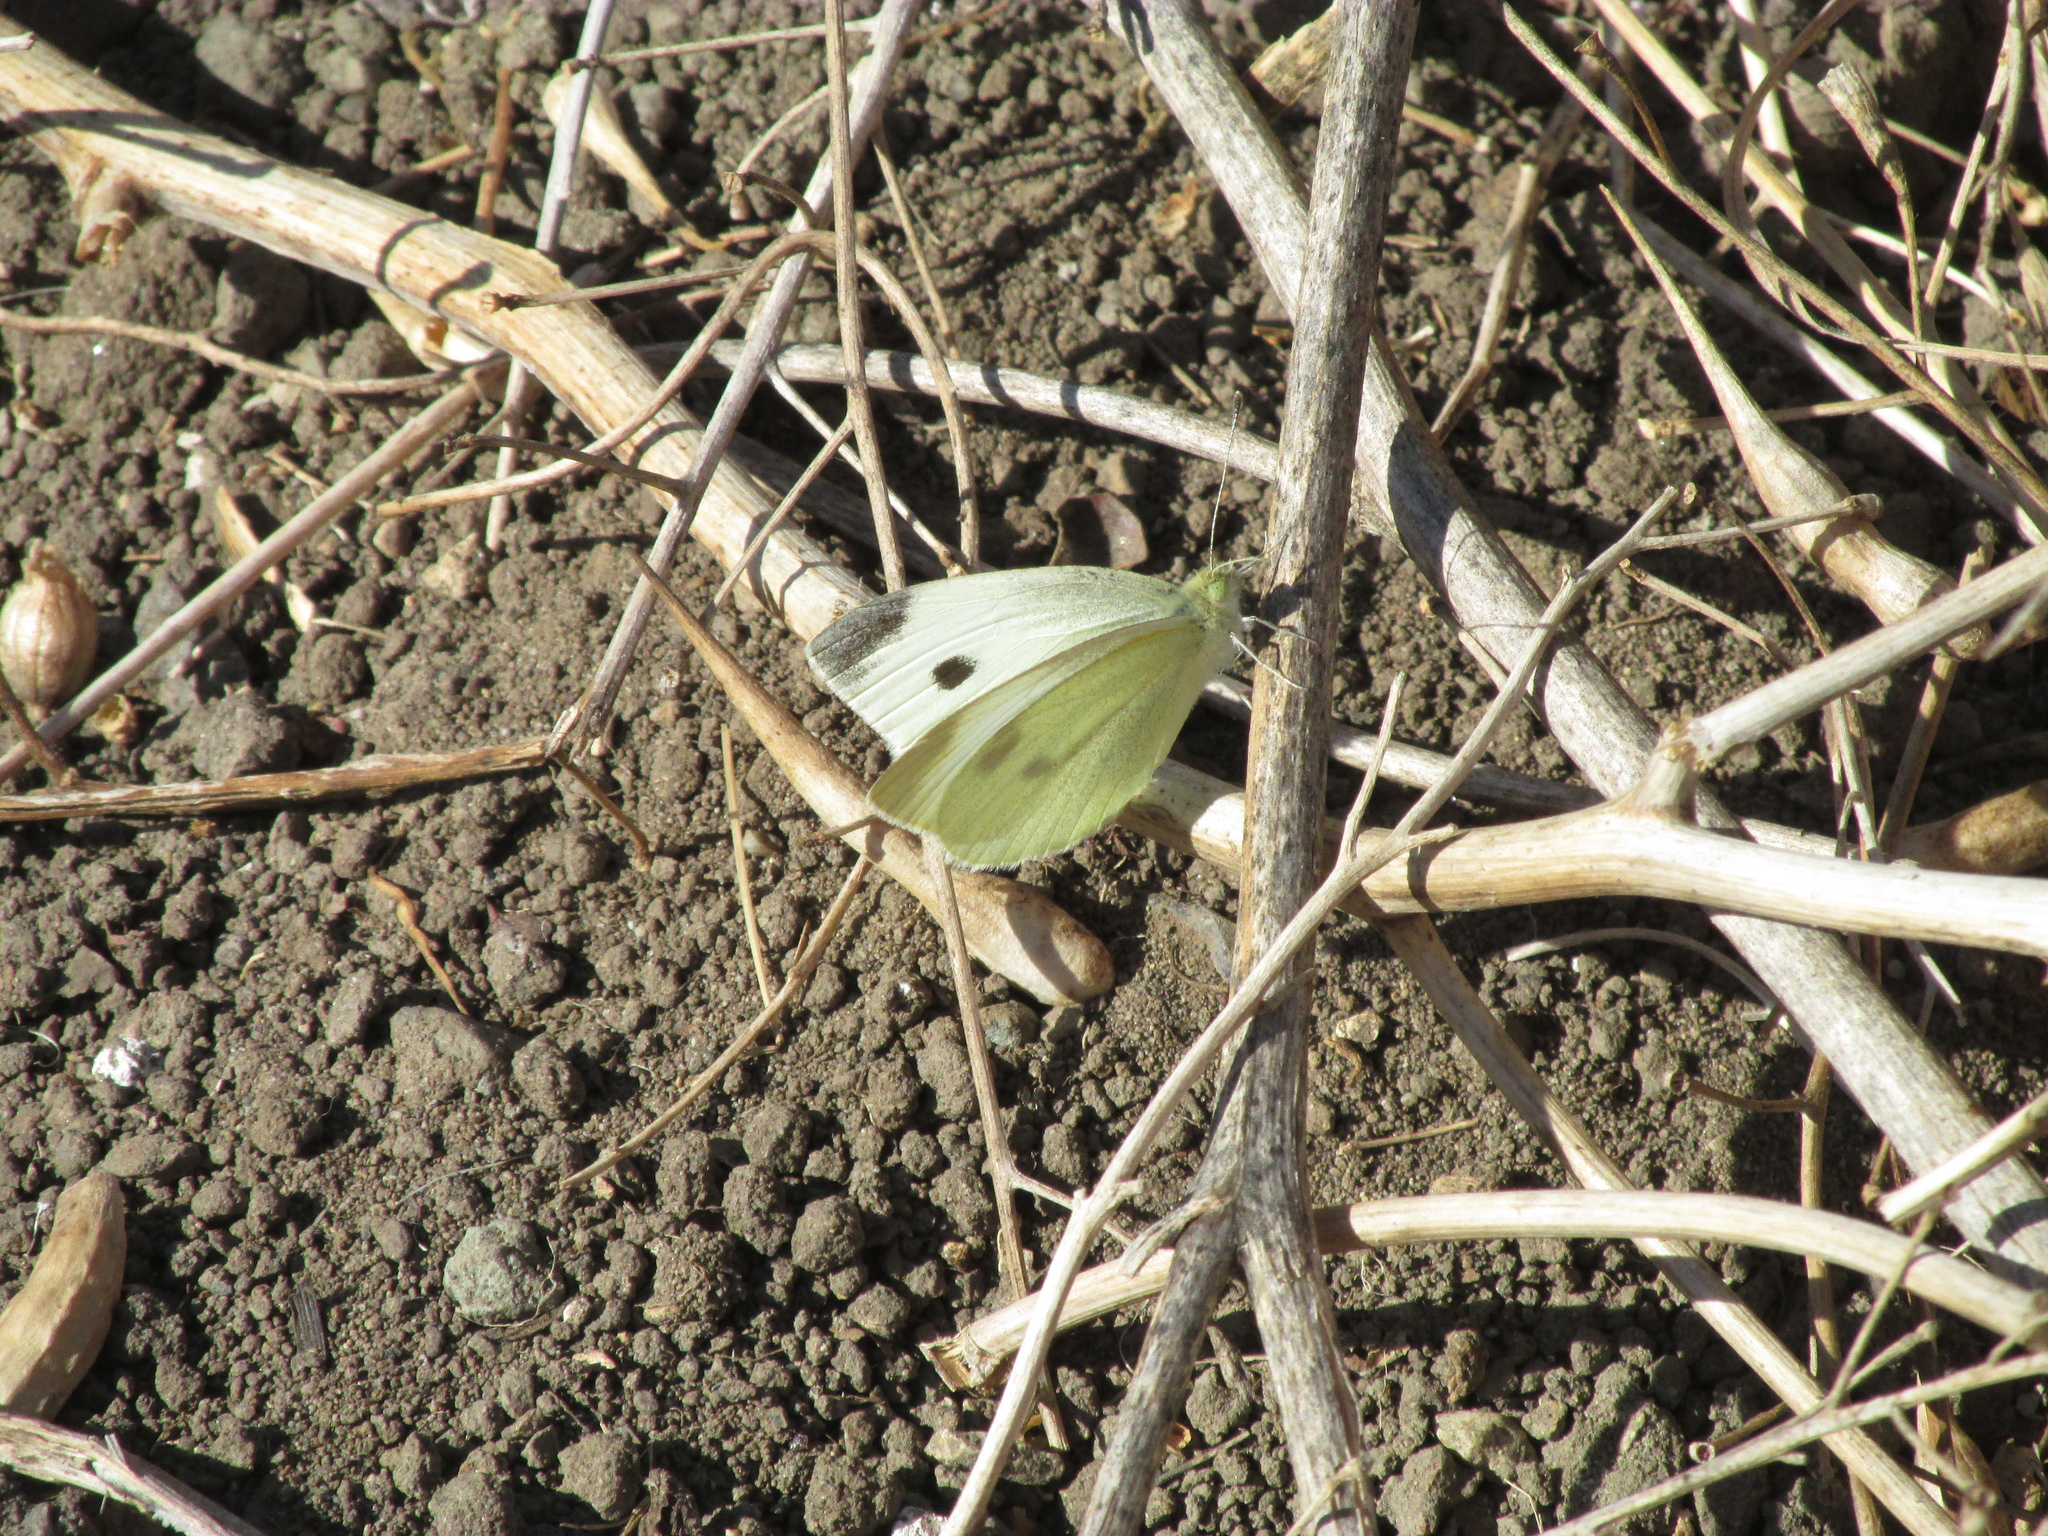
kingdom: Animalia
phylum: Arthropoda
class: Insecta
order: Lepidoptera
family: Pieridae
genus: Pieris
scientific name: Pieris rapae
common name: Small white
